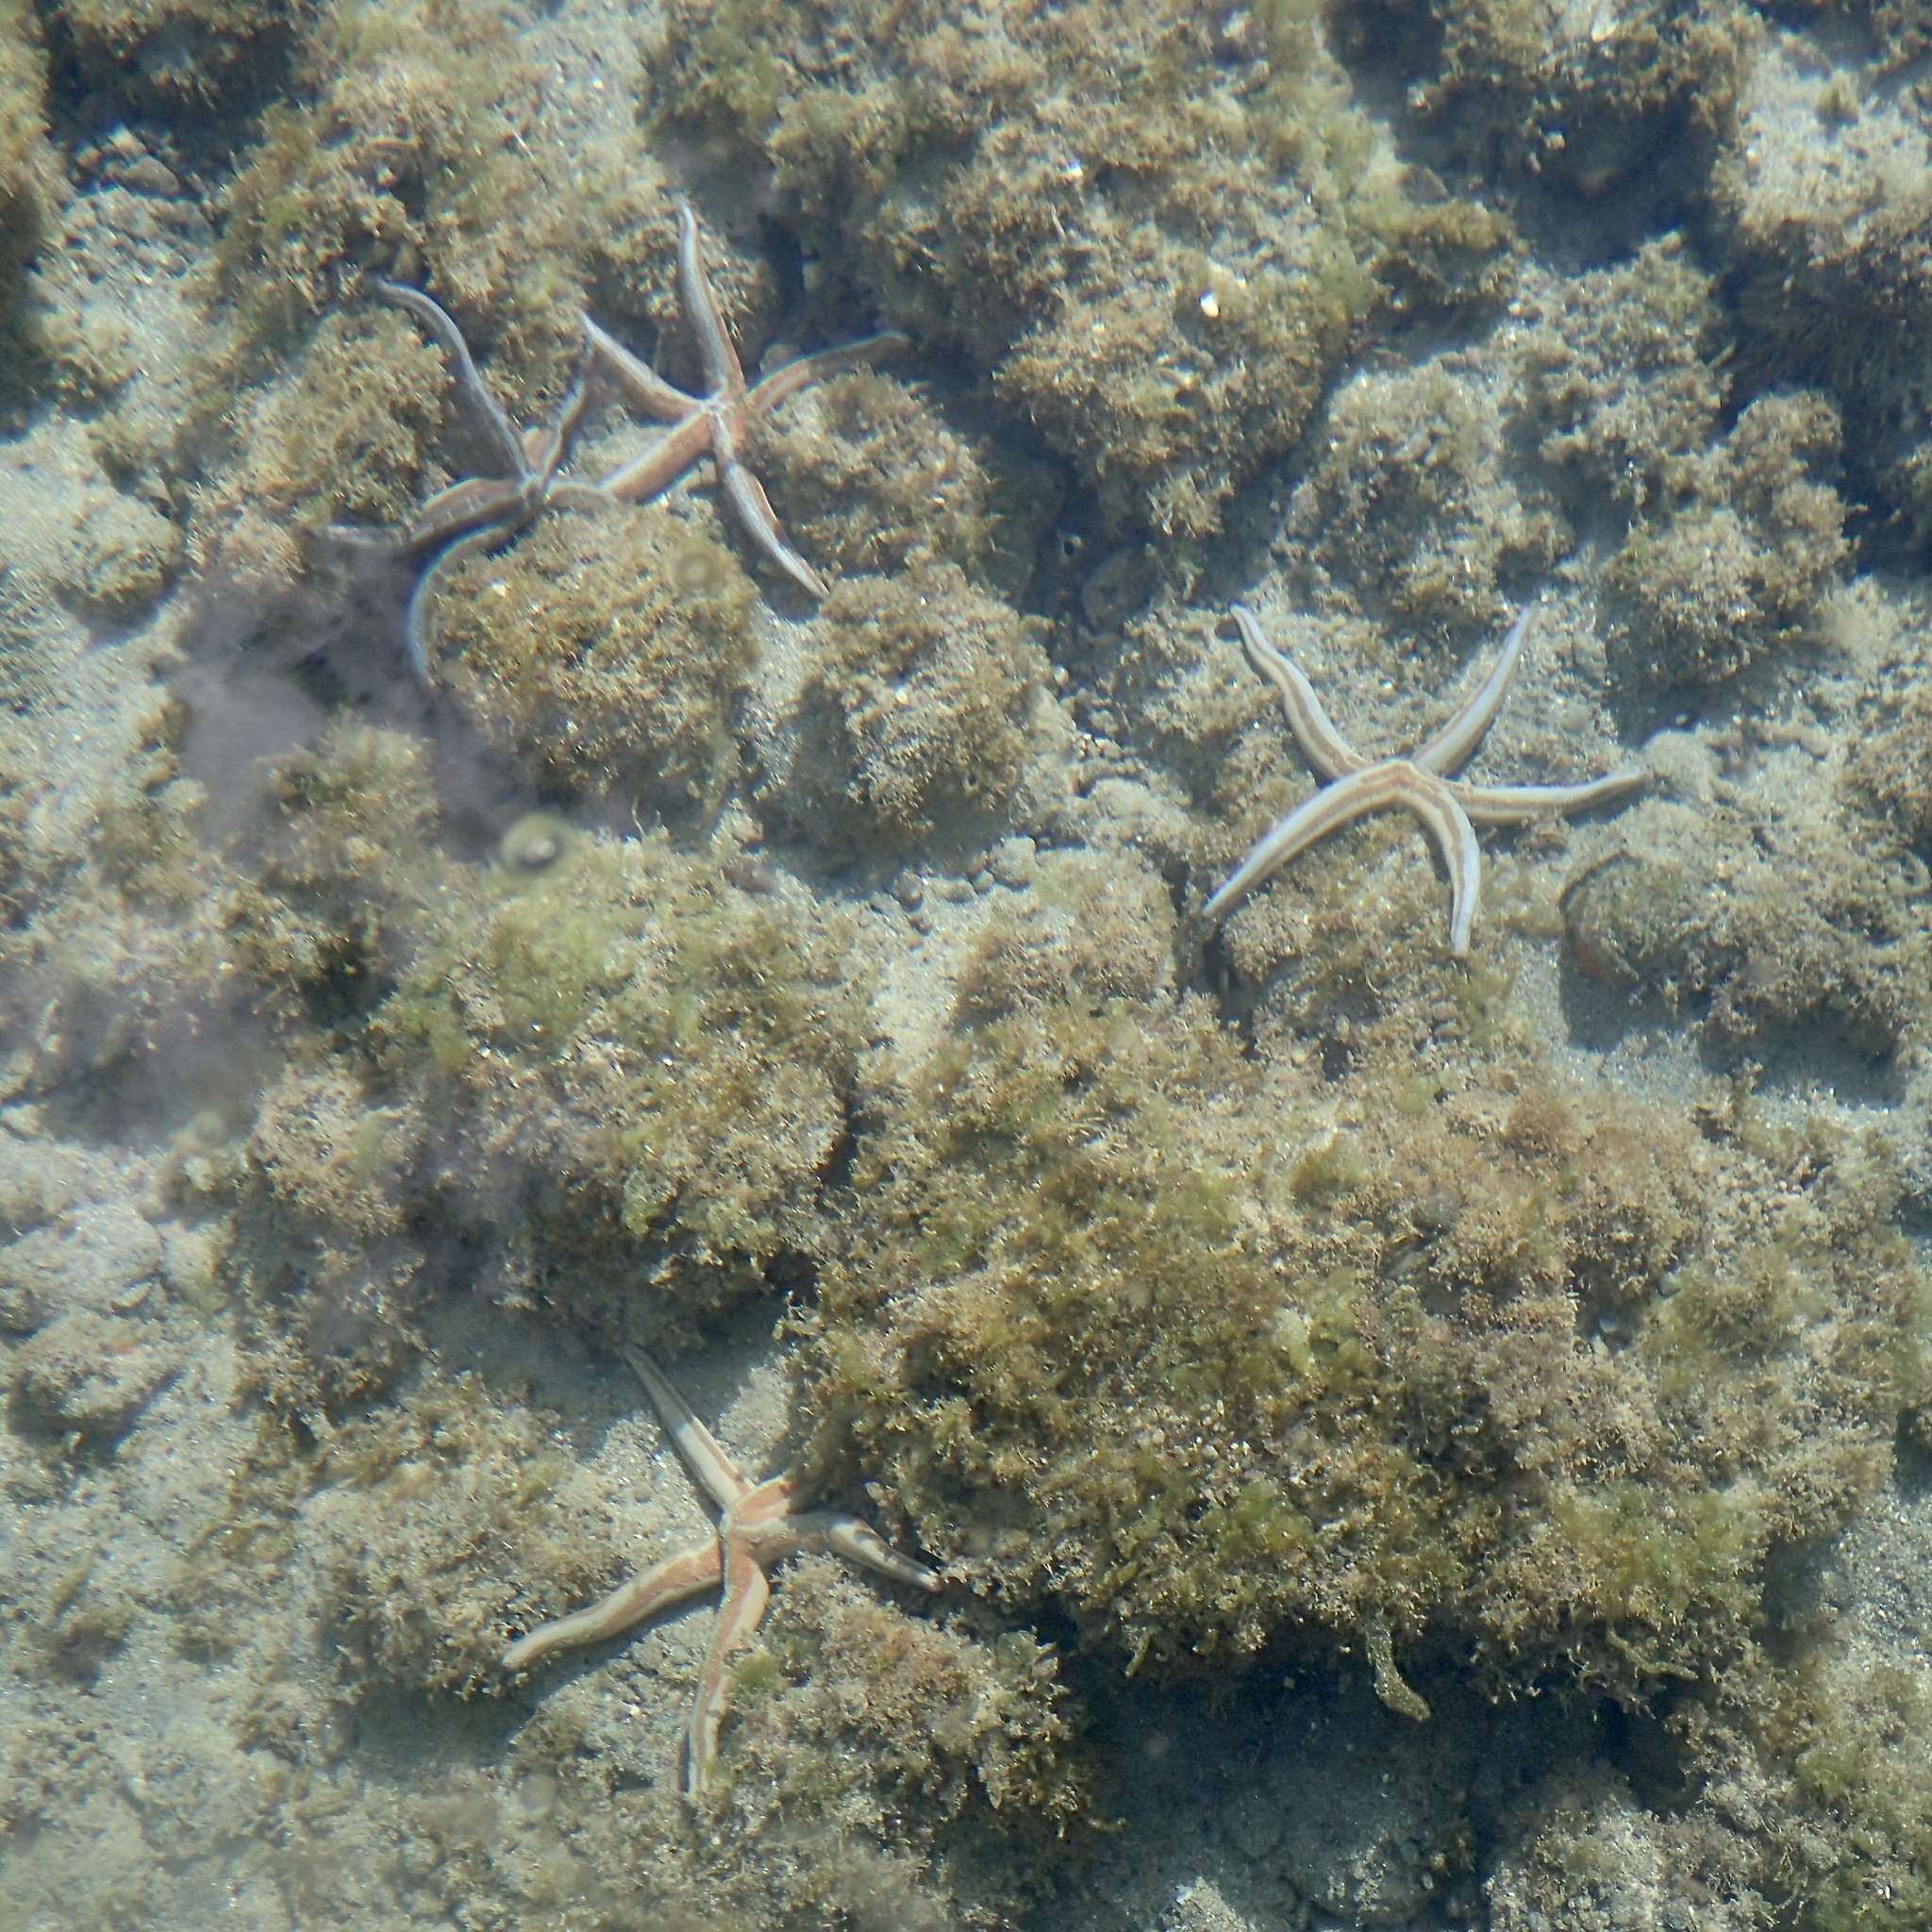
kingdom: Animalia
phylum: Echinodermata
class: Asteroidea
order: Valvatida
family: Ophidiasteridae
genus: Phataria
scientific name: Phataria unifascialis
